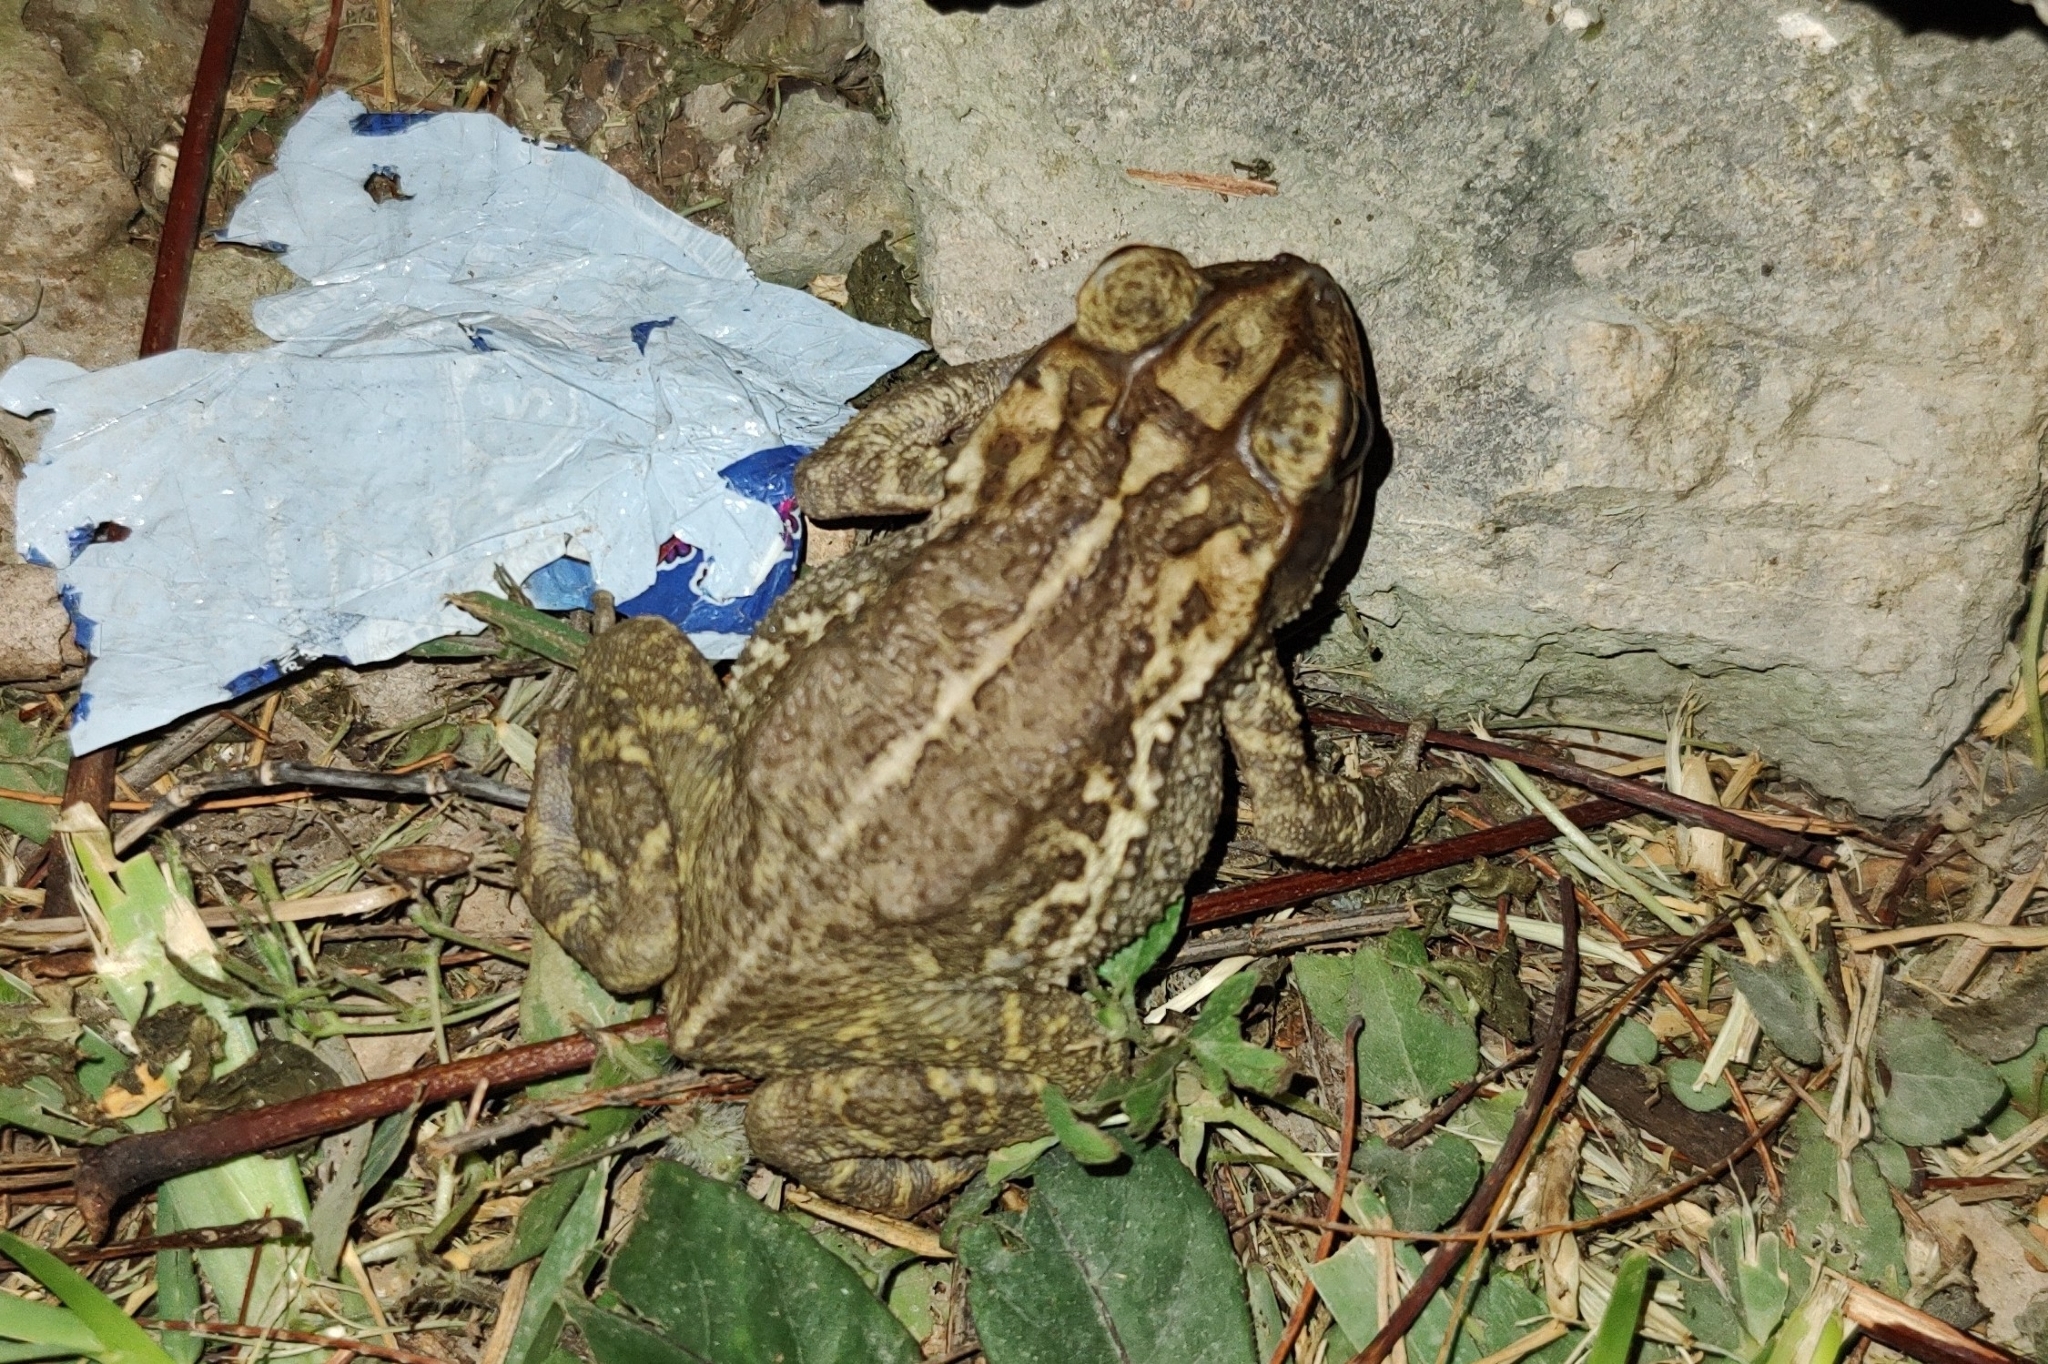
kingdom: Animalia
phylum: Chordata
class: Amphibia
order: Anura
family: Bufonidae
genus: Incilius
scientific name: Incilius valliceps
